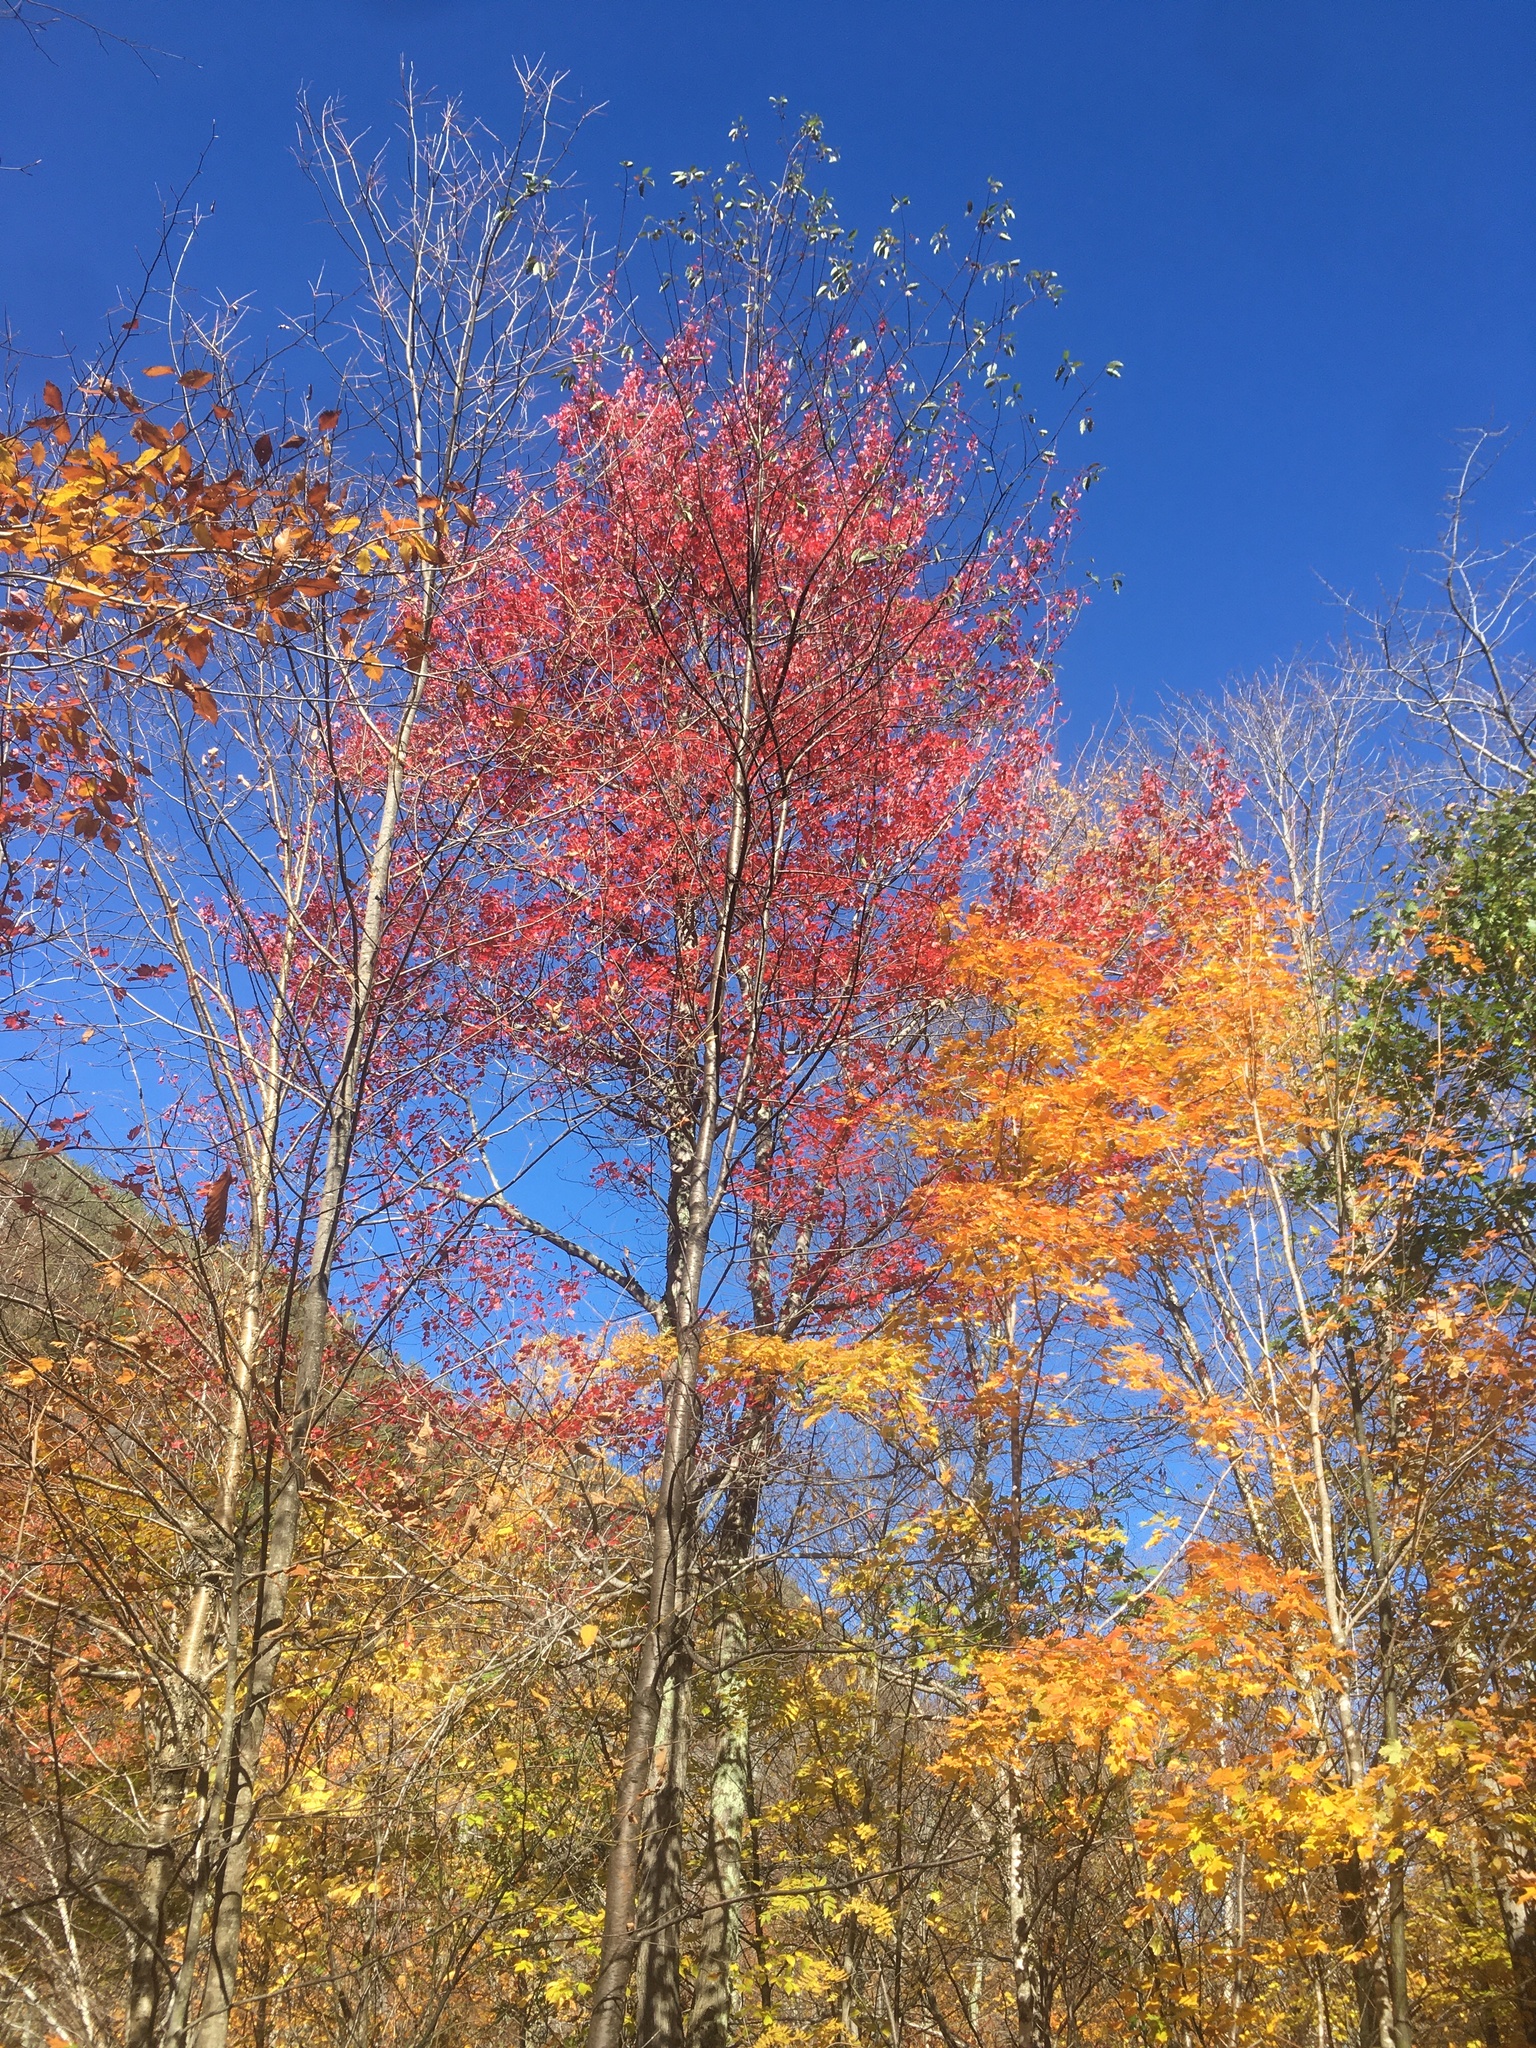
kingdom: Plantae
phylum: Tracheophyta
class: Magnoliopsida
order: Sapindales
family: Sapindaceae
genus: Acer
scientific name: Acer rubrum
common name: Red maple
